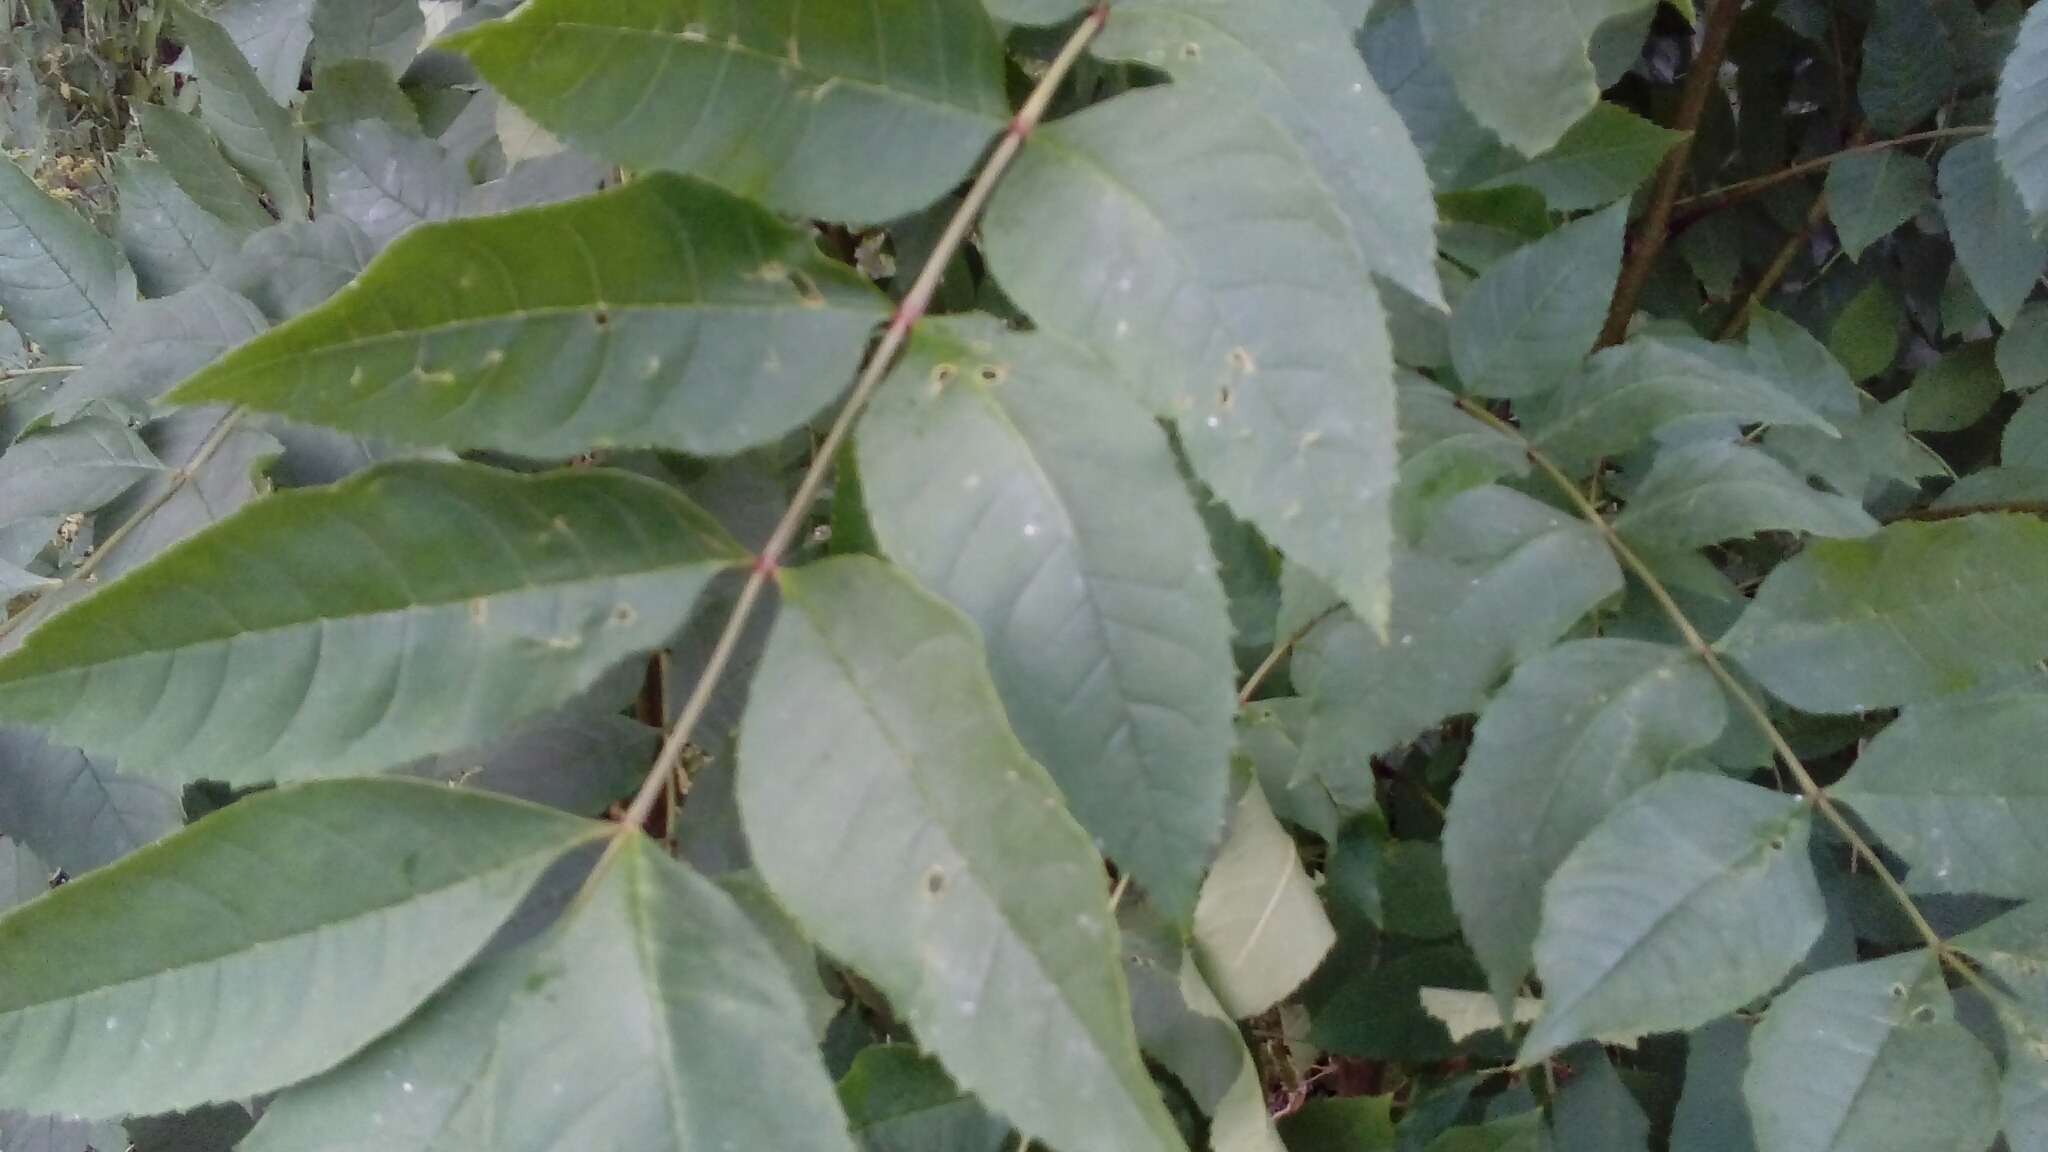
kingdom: Plantae
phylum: Tracheophyta
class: Magnoliopsida
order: Lamiales
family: Oleaceae
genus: Fraxinus
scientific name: Fraxinus excelsior
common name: European ash
